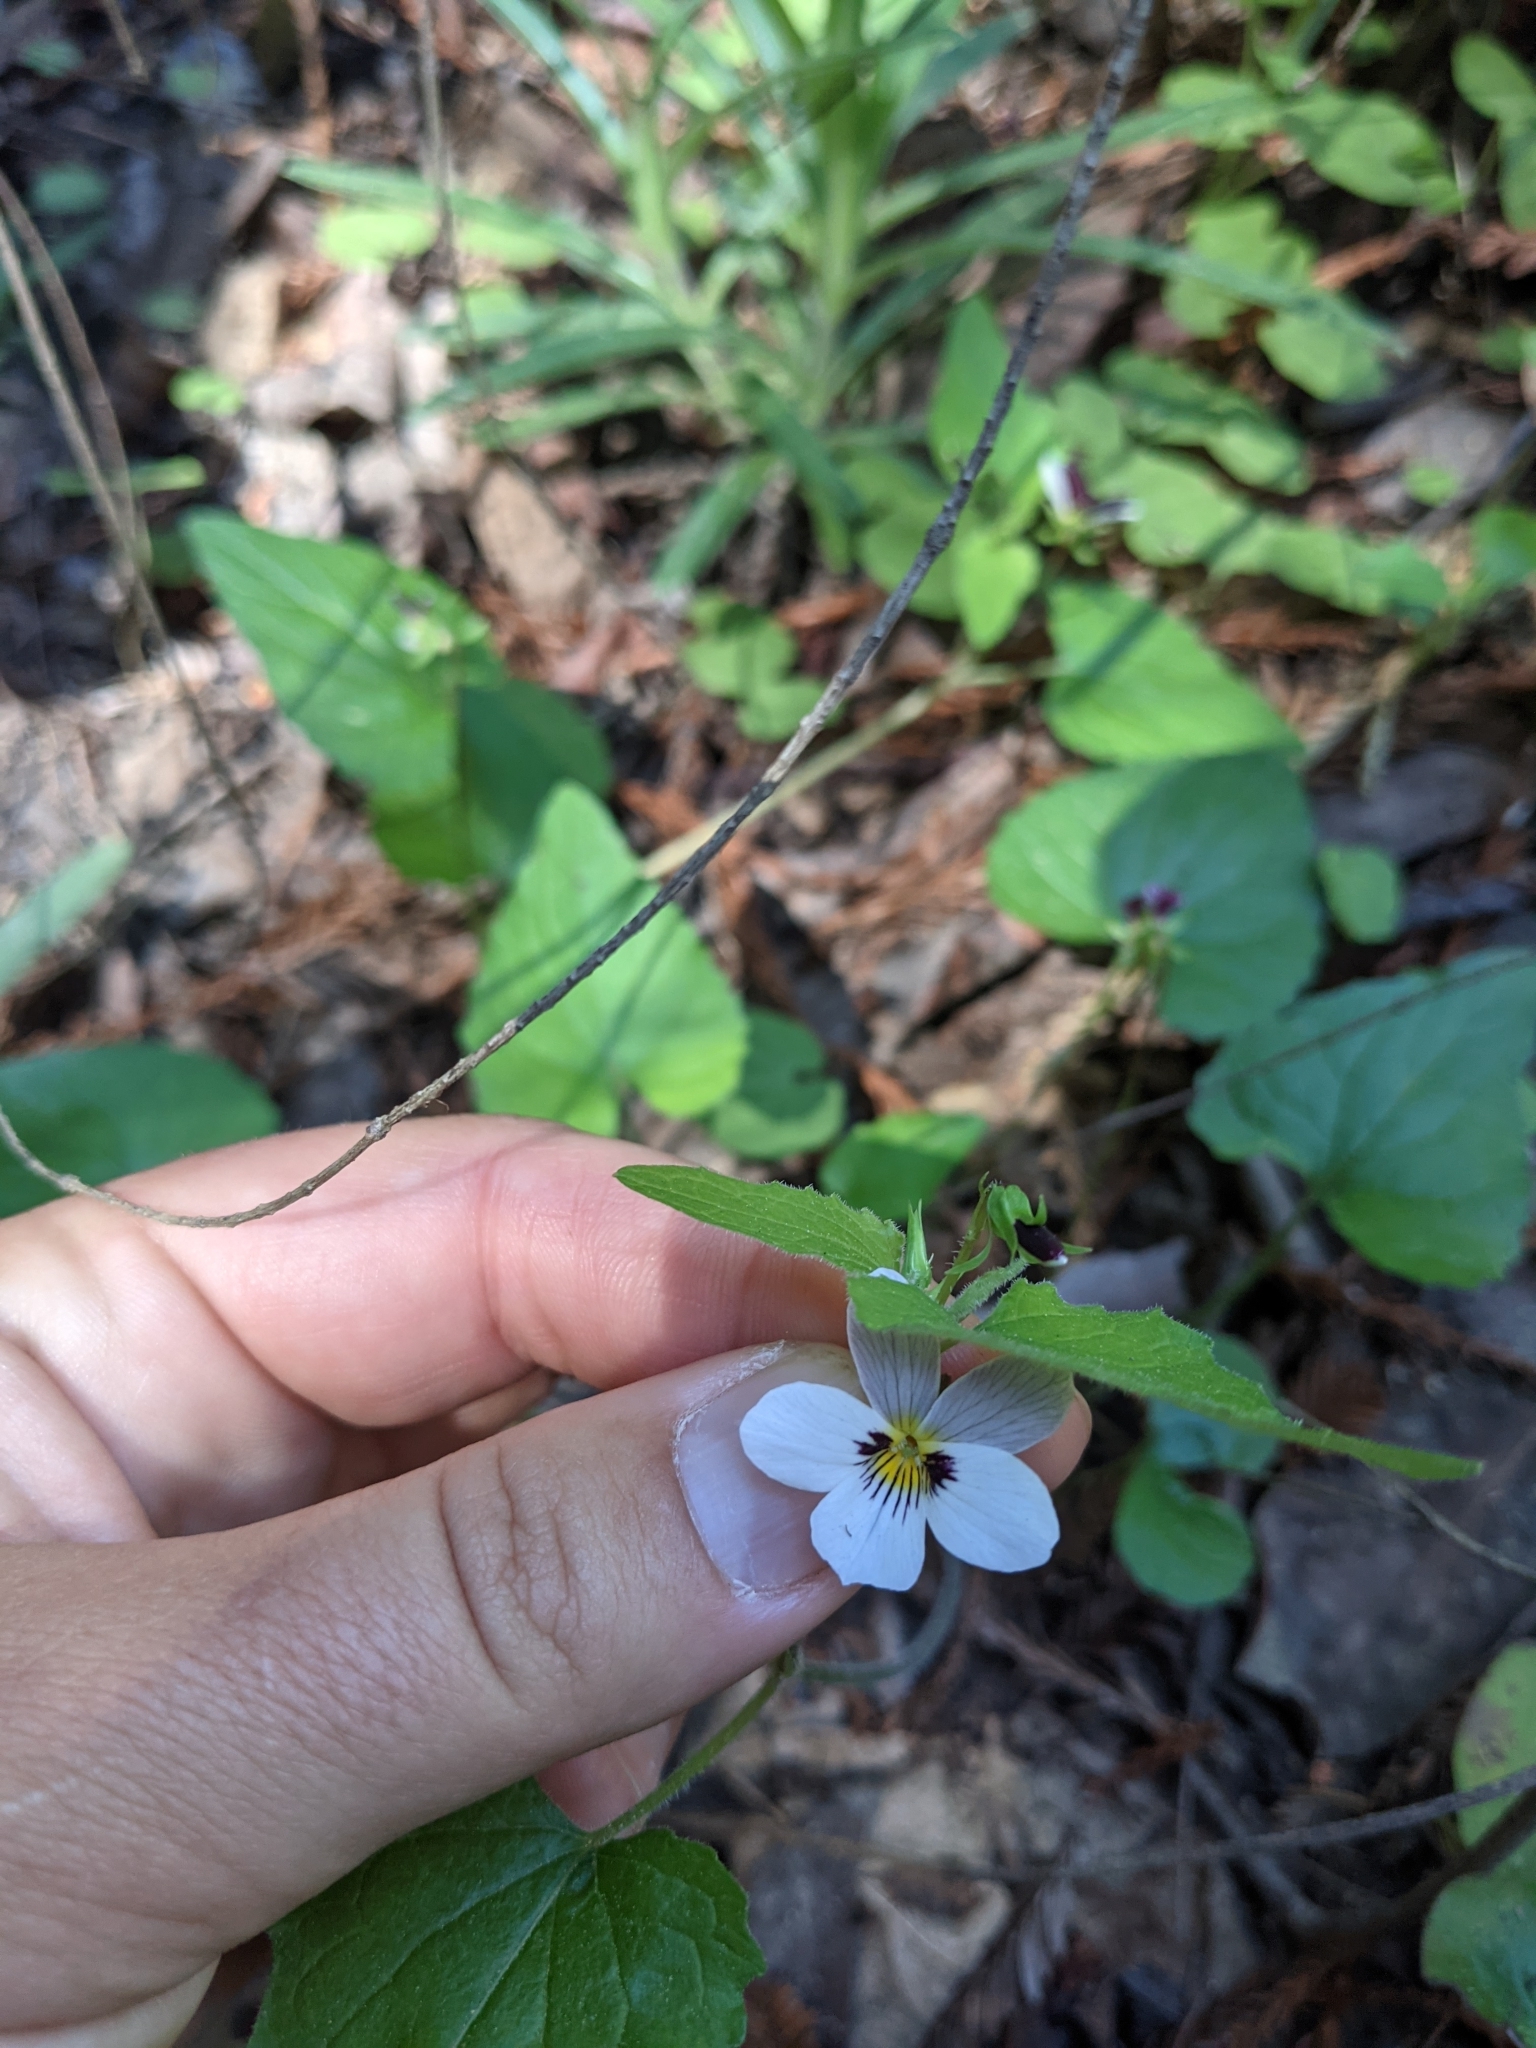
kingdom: Plantae
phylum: Tracheophyta
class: Magnoliopsida
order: Malpighiales
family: Violaceae
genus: Viola
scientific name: Viola ocellata
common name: Western heart's ease
